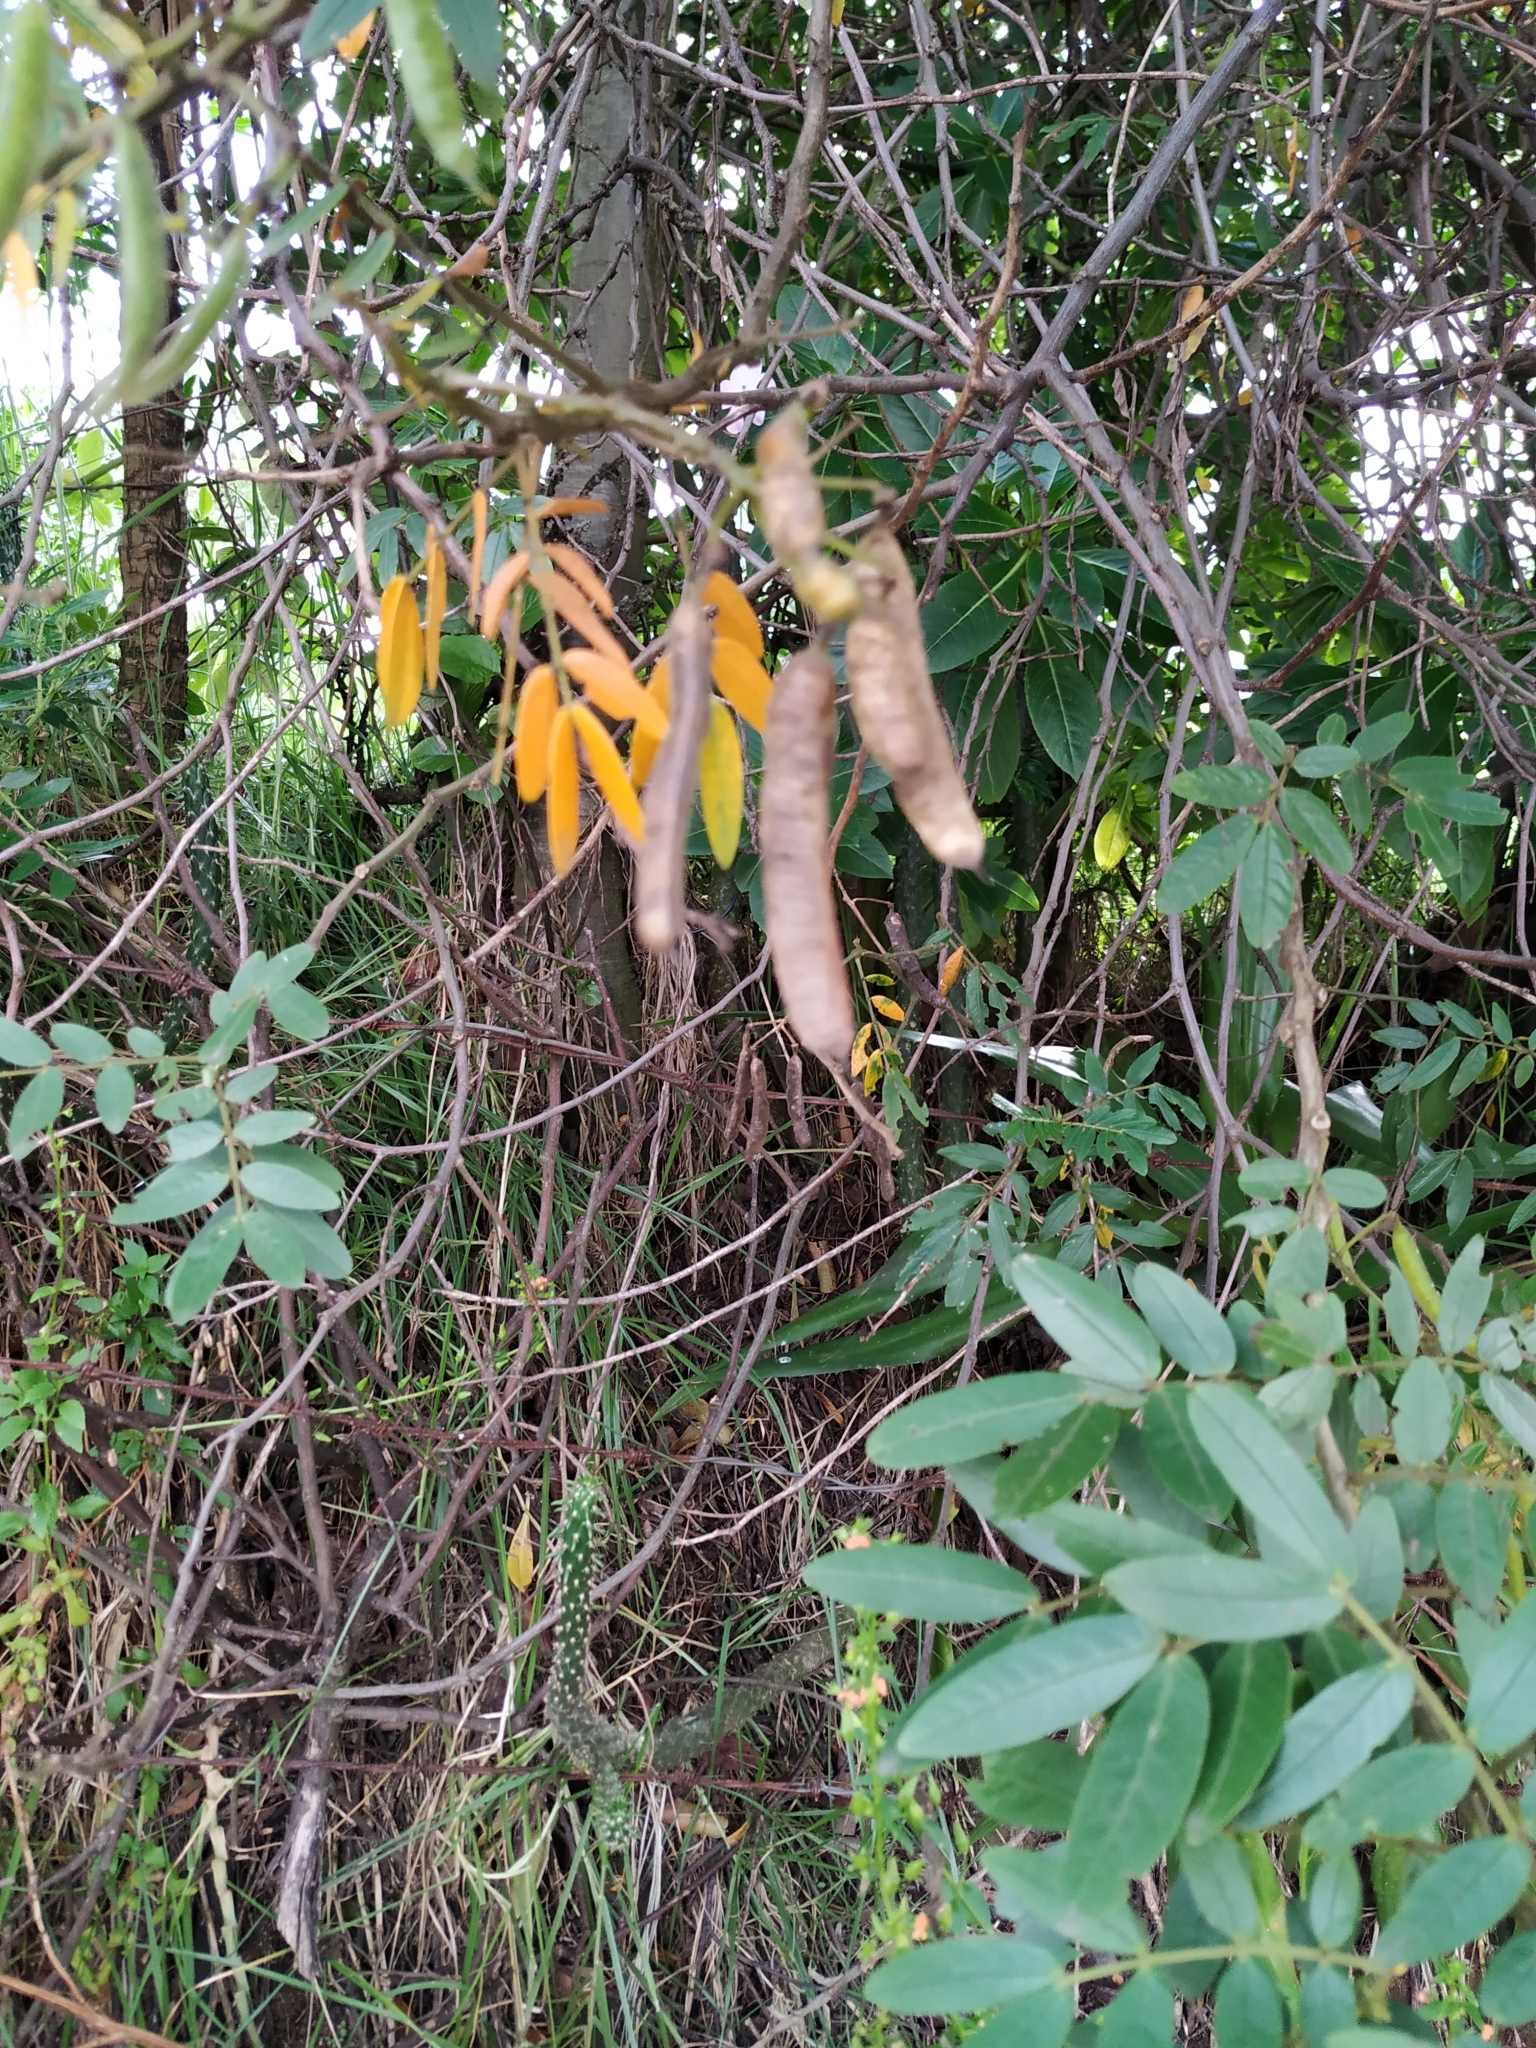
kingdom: Plantae
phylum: Tracheophyta
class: Magnoliopsida
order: Fabales
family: Fabaceae
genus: Senna
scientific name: Senna multiglandulosa
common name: Glandular senna
